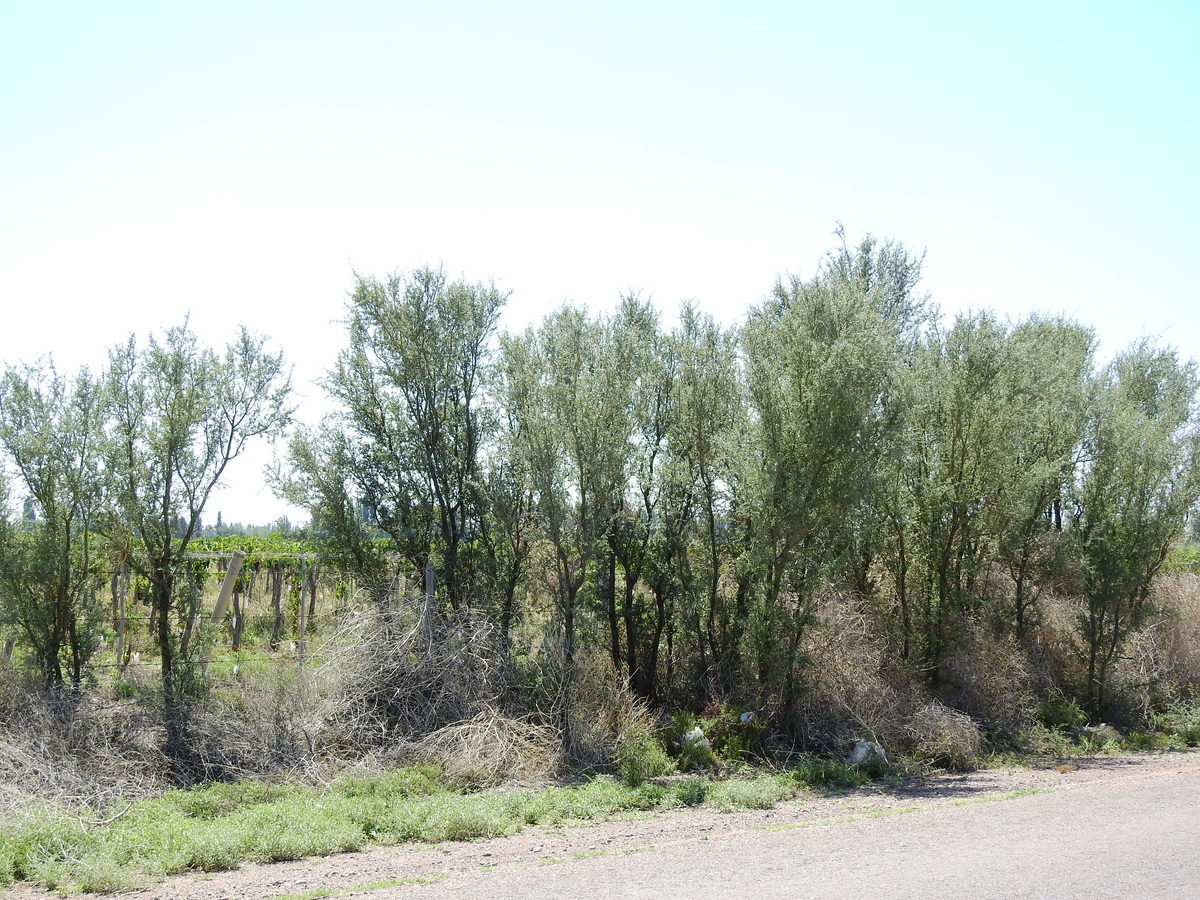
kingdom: Plantae
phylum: Tracheophyta
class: Magnoliopsida
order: Fabales
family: Fabaceae
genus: Geoffroea
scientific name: Geoffroea decorticans
